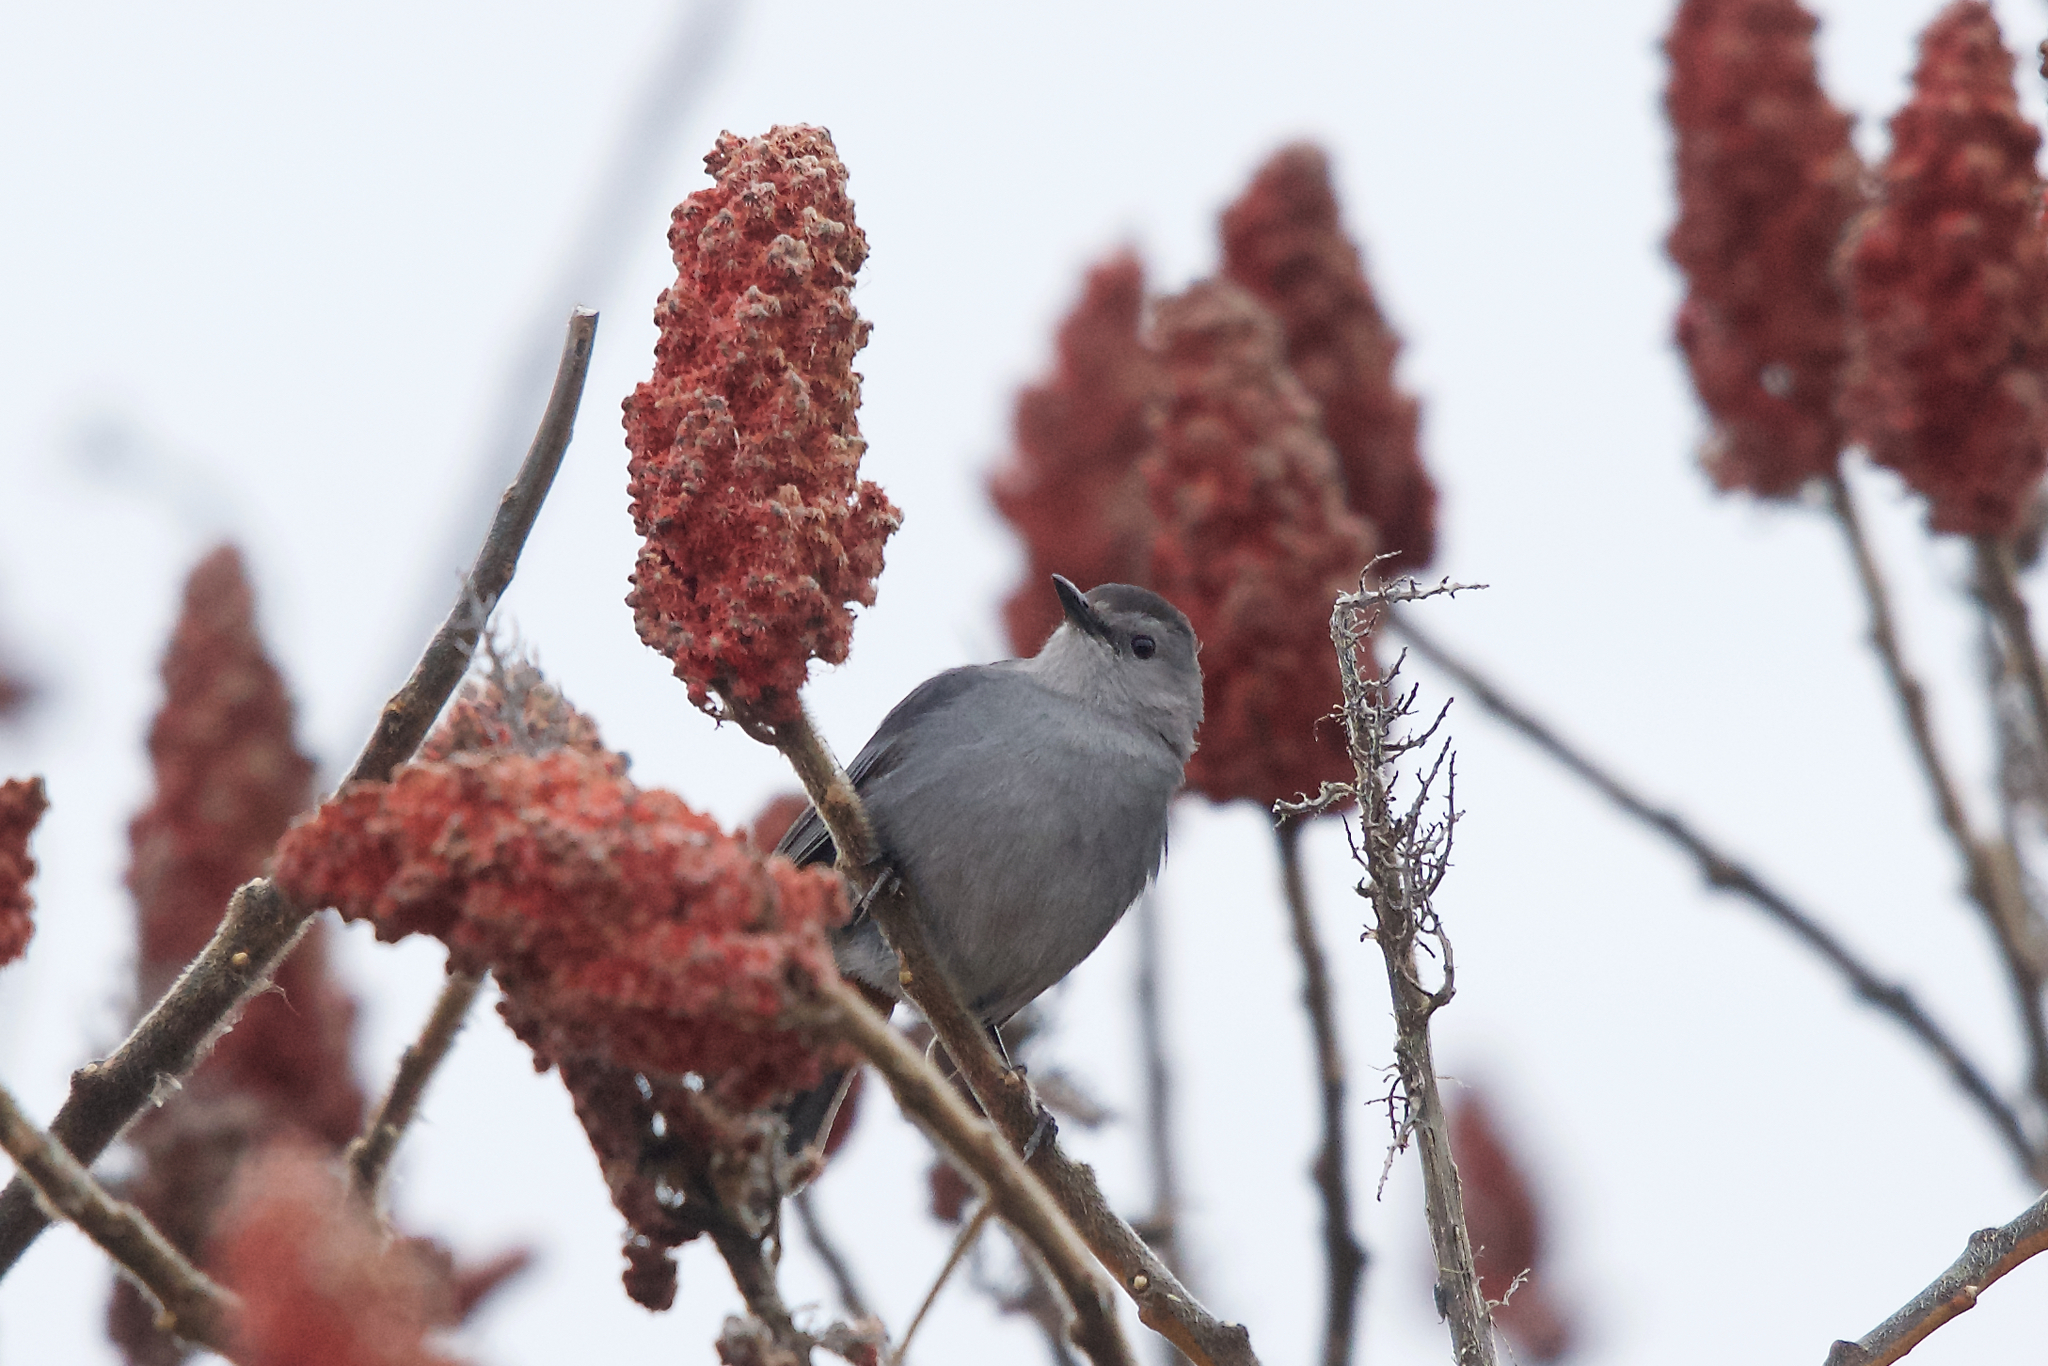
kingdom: Animalia
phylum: Chordata
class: Aves
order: Passeriformes
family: Mimidae
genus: Dumetella
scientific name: Dumetella carolinensis
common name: Gray catbird
